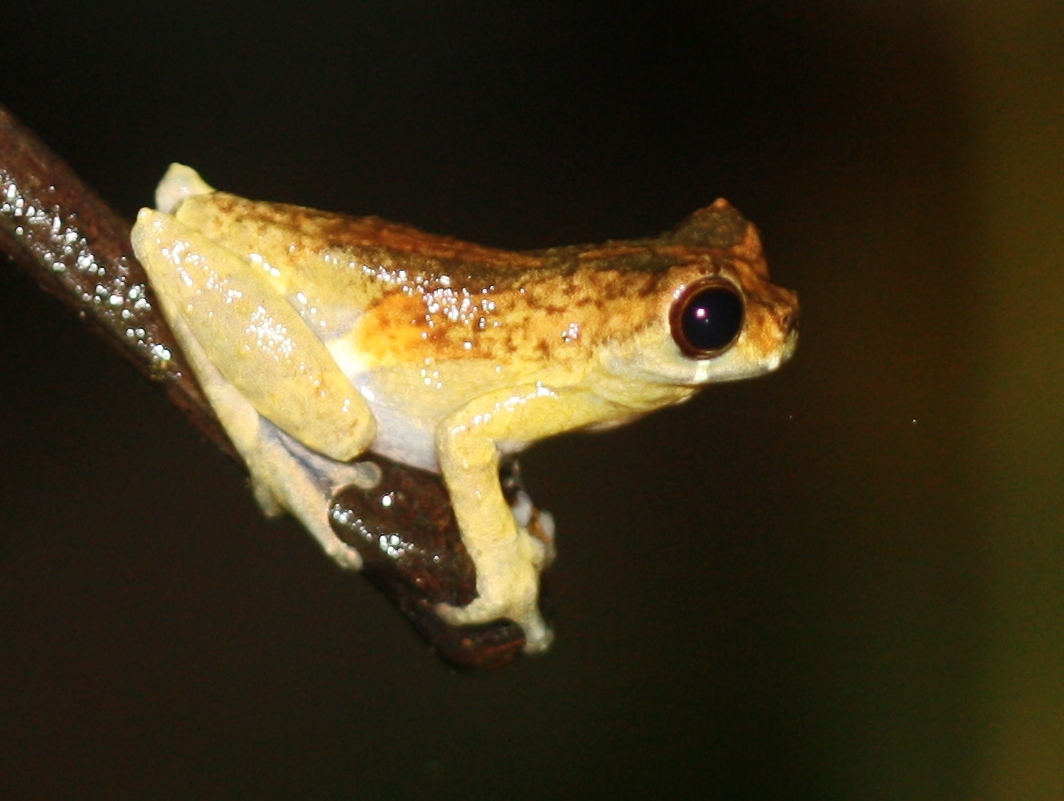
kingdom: Animalia
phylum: Chordata
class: Amphibia
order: Anura
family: Hylidae
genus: Dendropsophus
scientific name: Dendropsophus kamagarini
